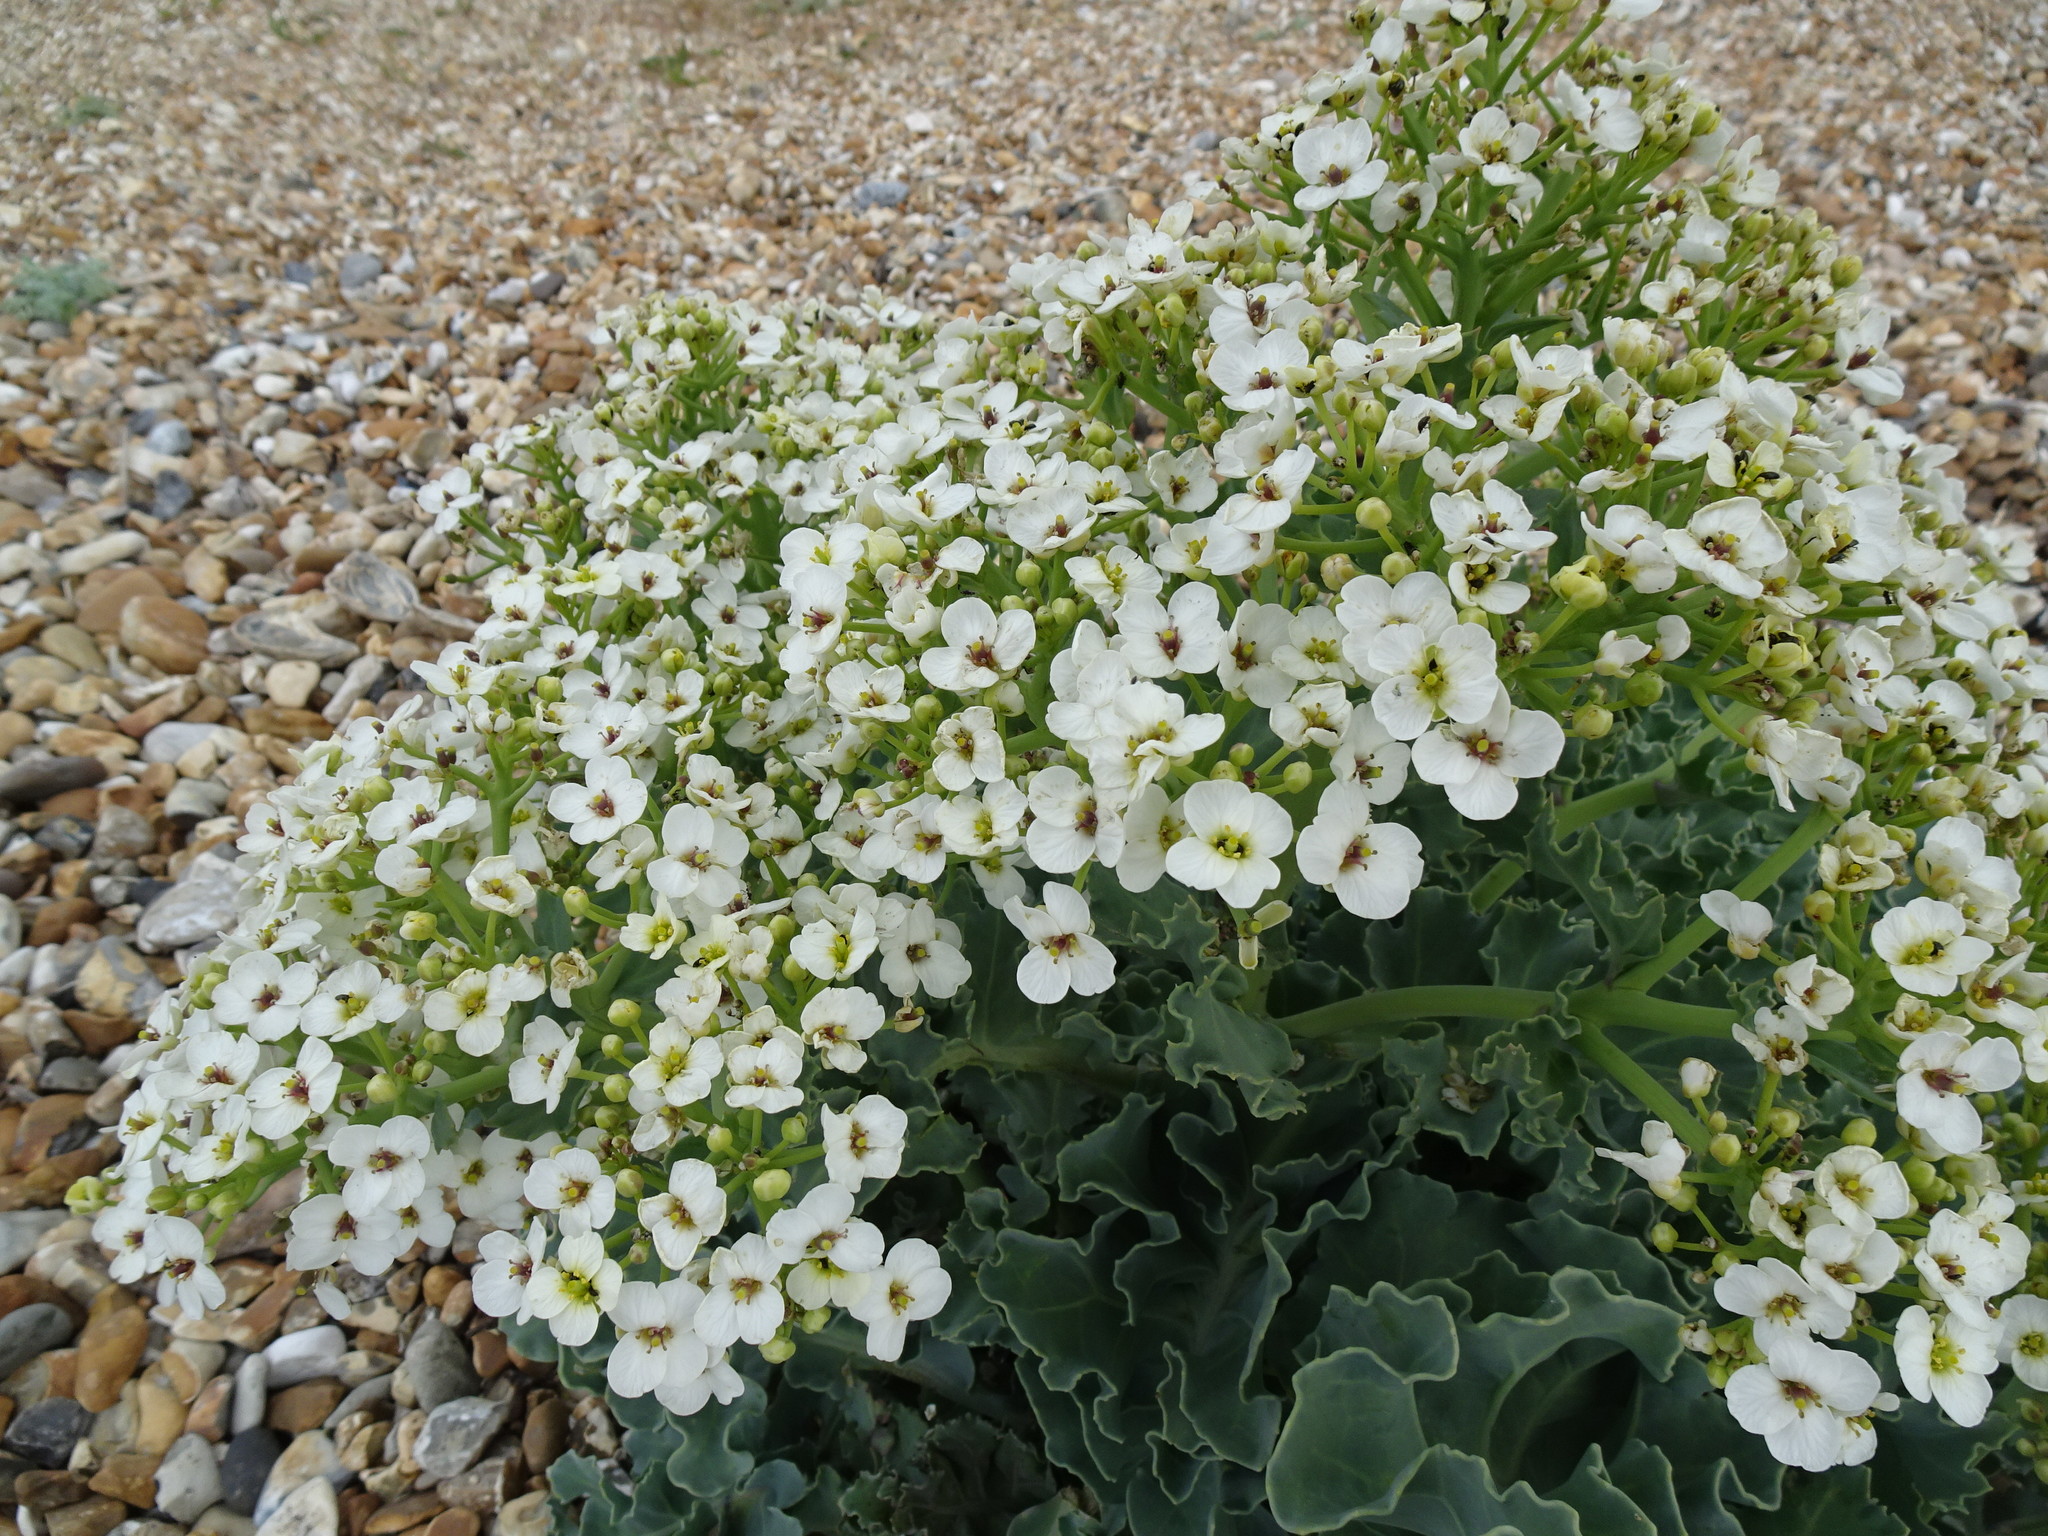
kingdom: Plantae
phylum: Tracheophyta
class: Magnoliopsida
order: Brassicales
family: Brassicaceae
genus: Crambe
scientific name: Crambe maritima
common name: Sea-kale
